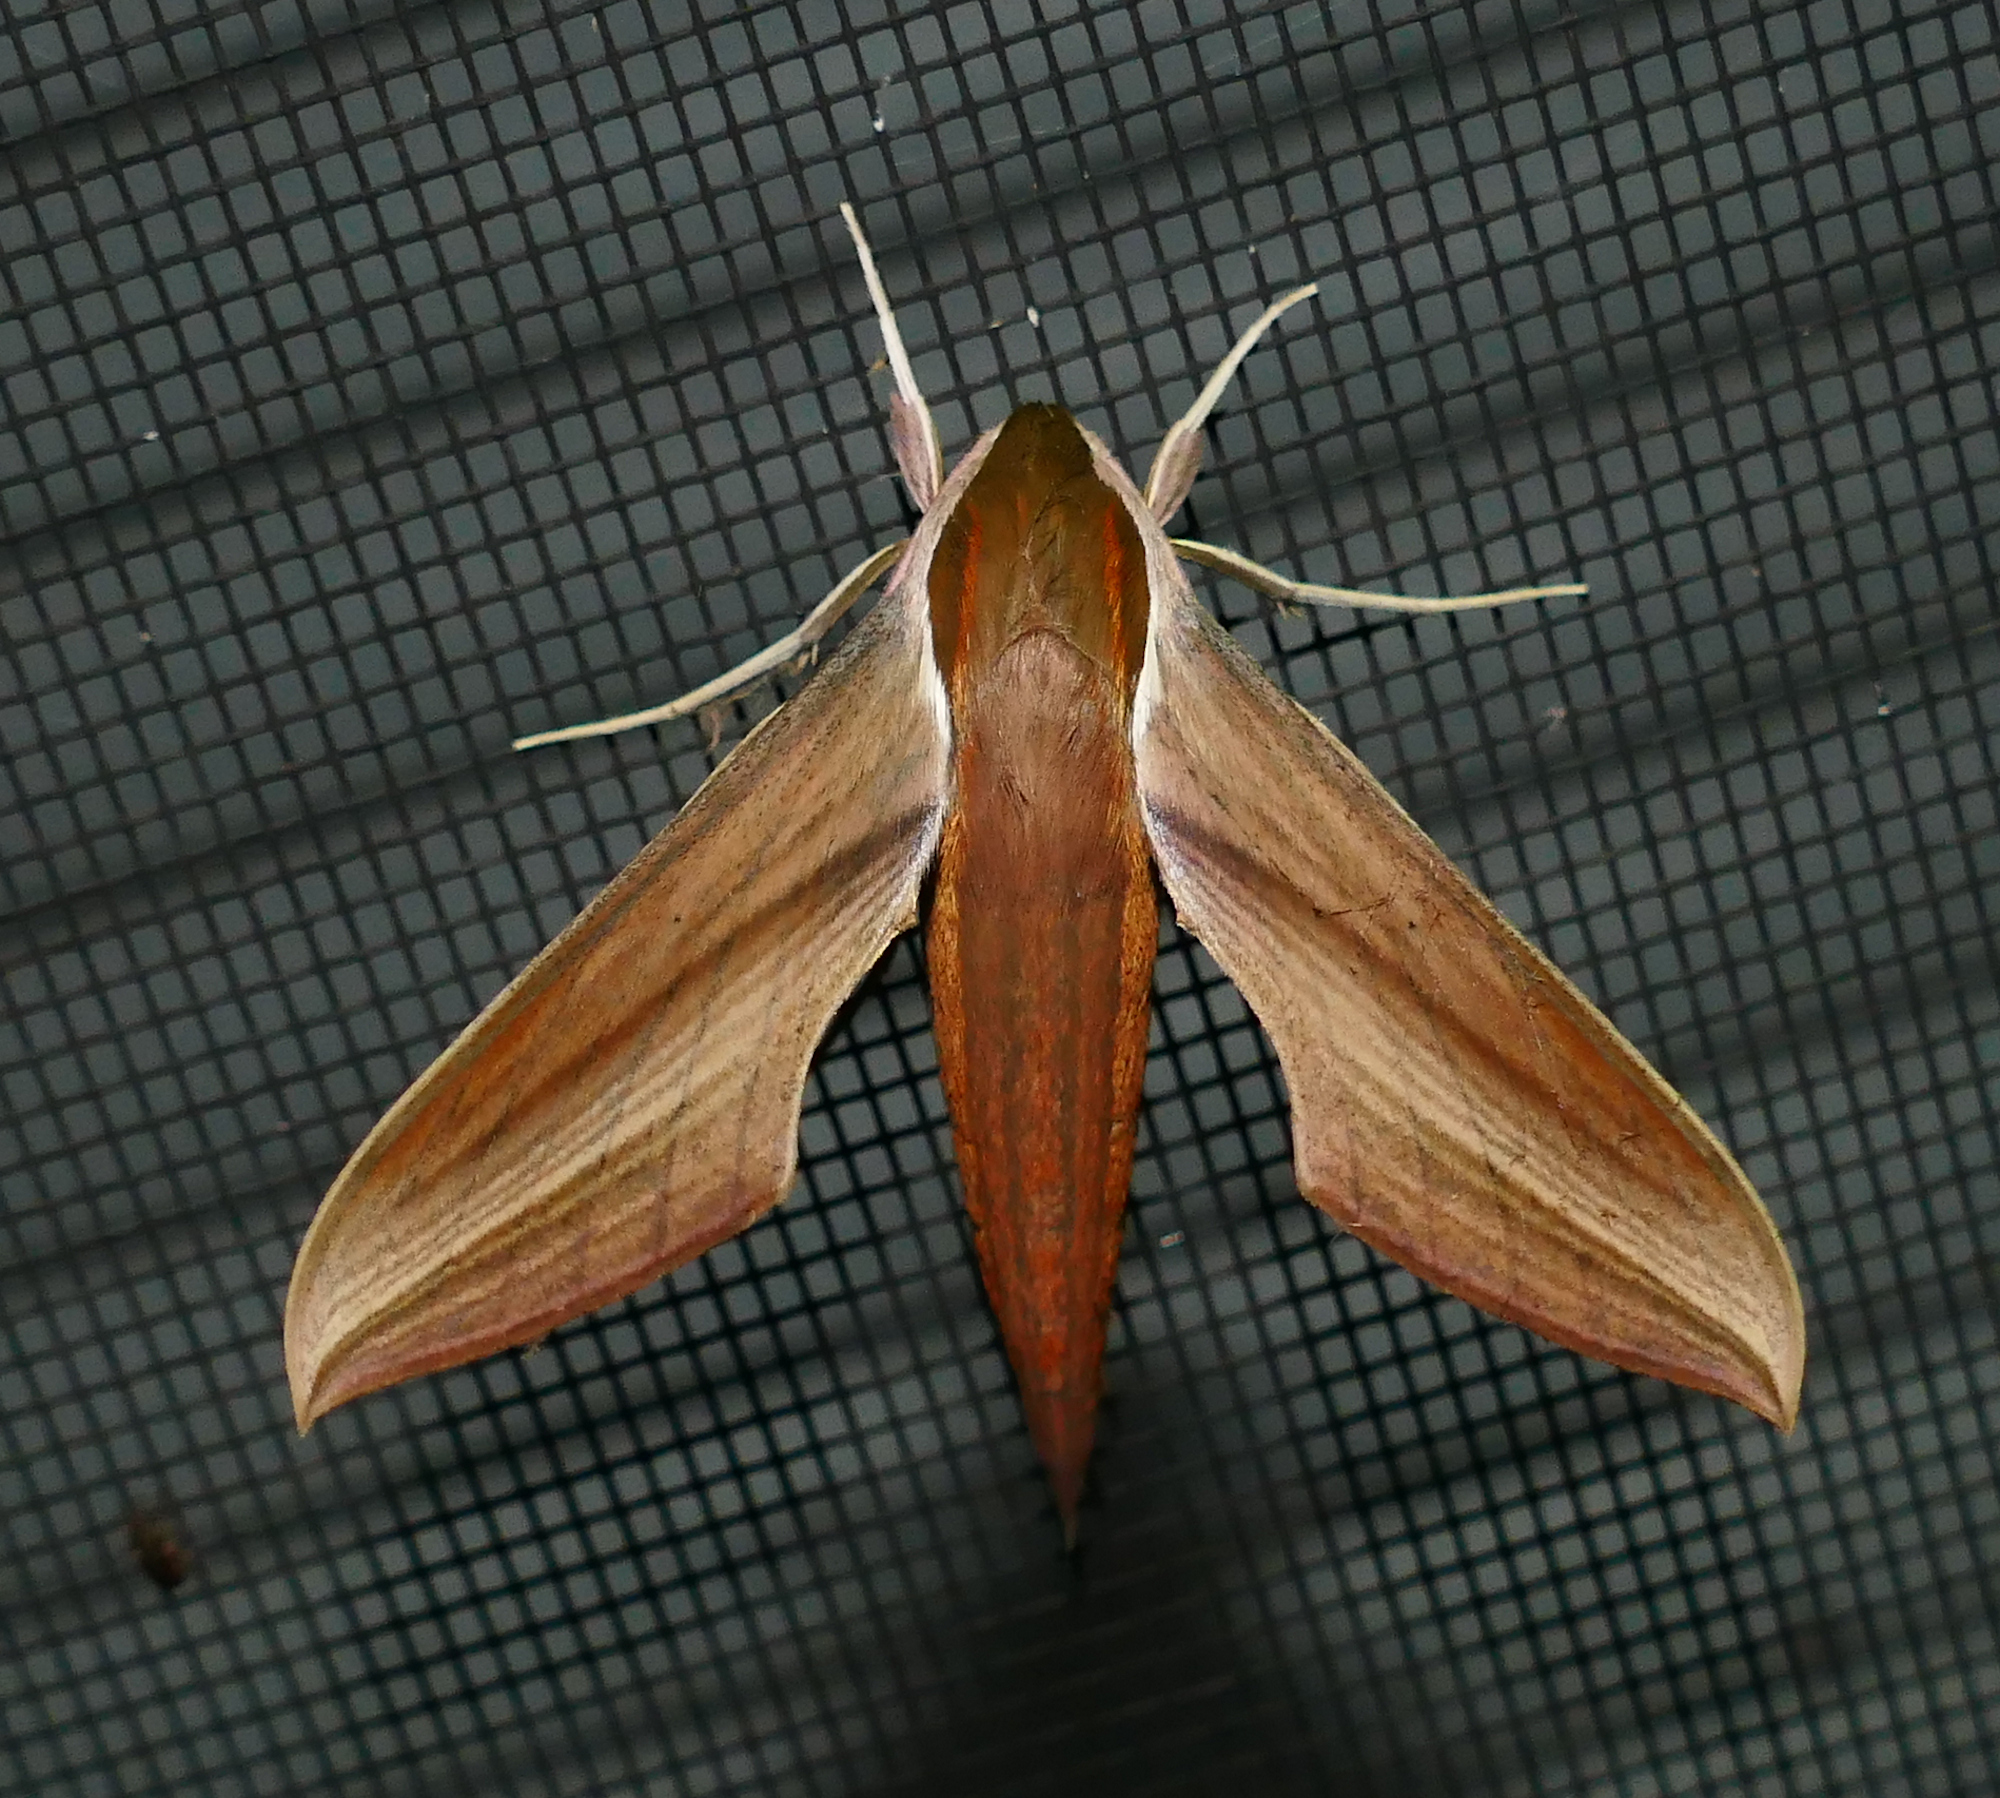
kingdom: Animalia
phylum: Arthropoda
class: Insecta
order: Lepidoptera
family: Sphingidae
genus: Xylophanes
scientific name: Xylophanes tersa
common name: Tersa sphinx
